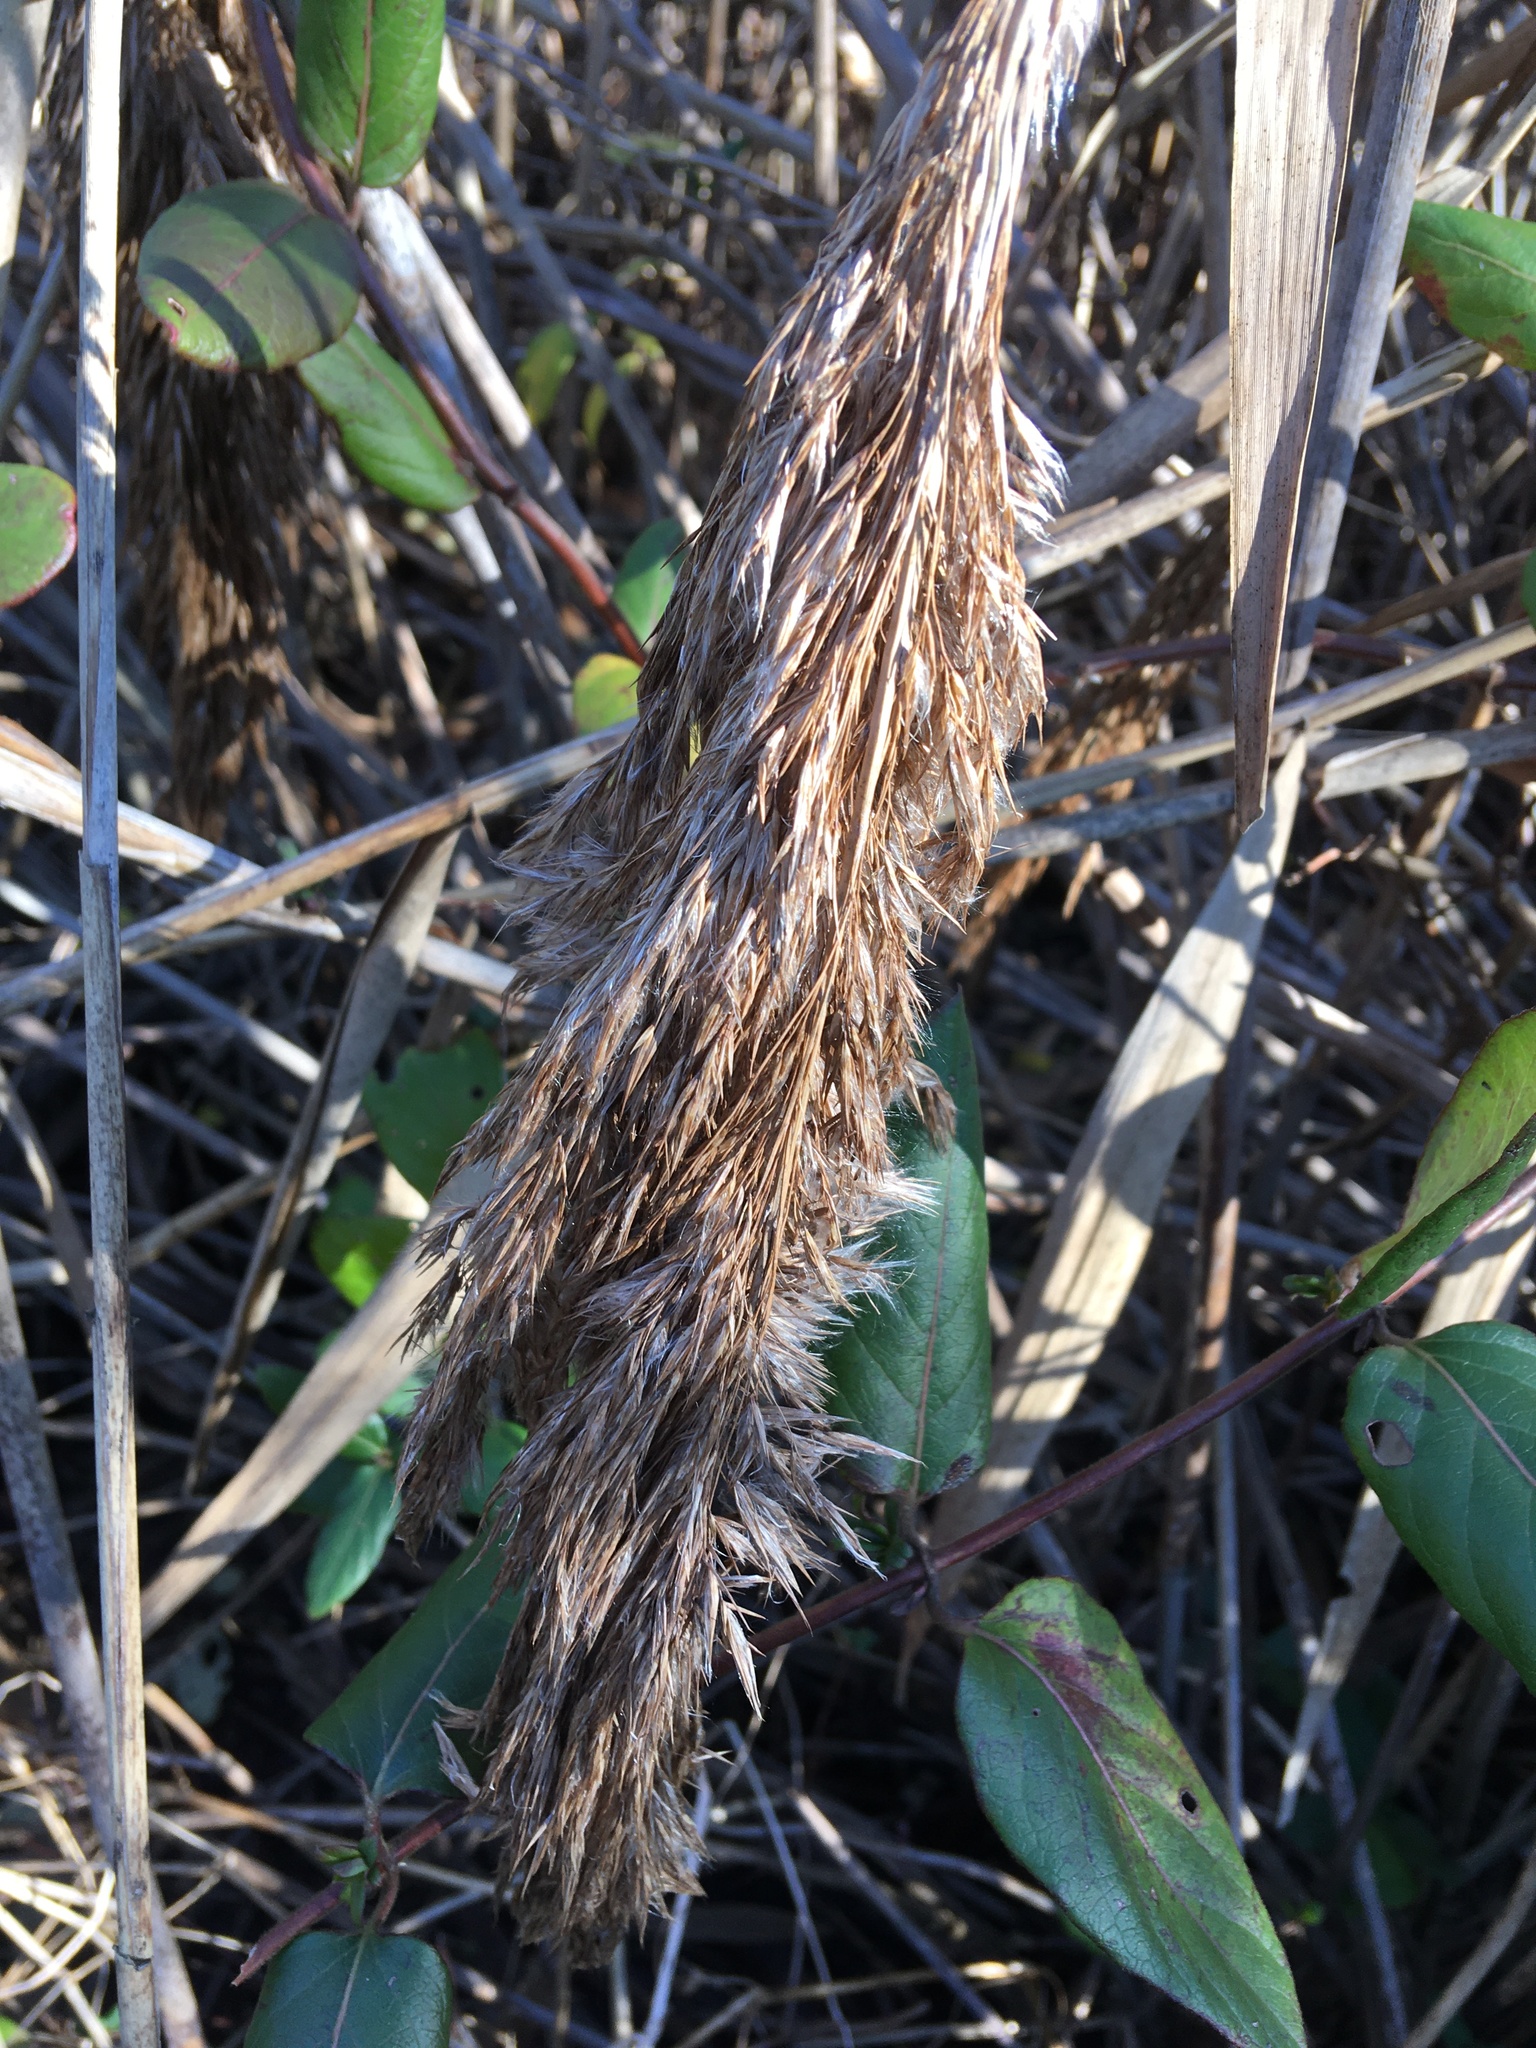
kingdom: Plantae
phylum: Tracheophyta
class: Liliopsida
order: Poales
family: Poaceae
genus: Phragmites
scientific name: Phragmites australis
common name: Common reed
